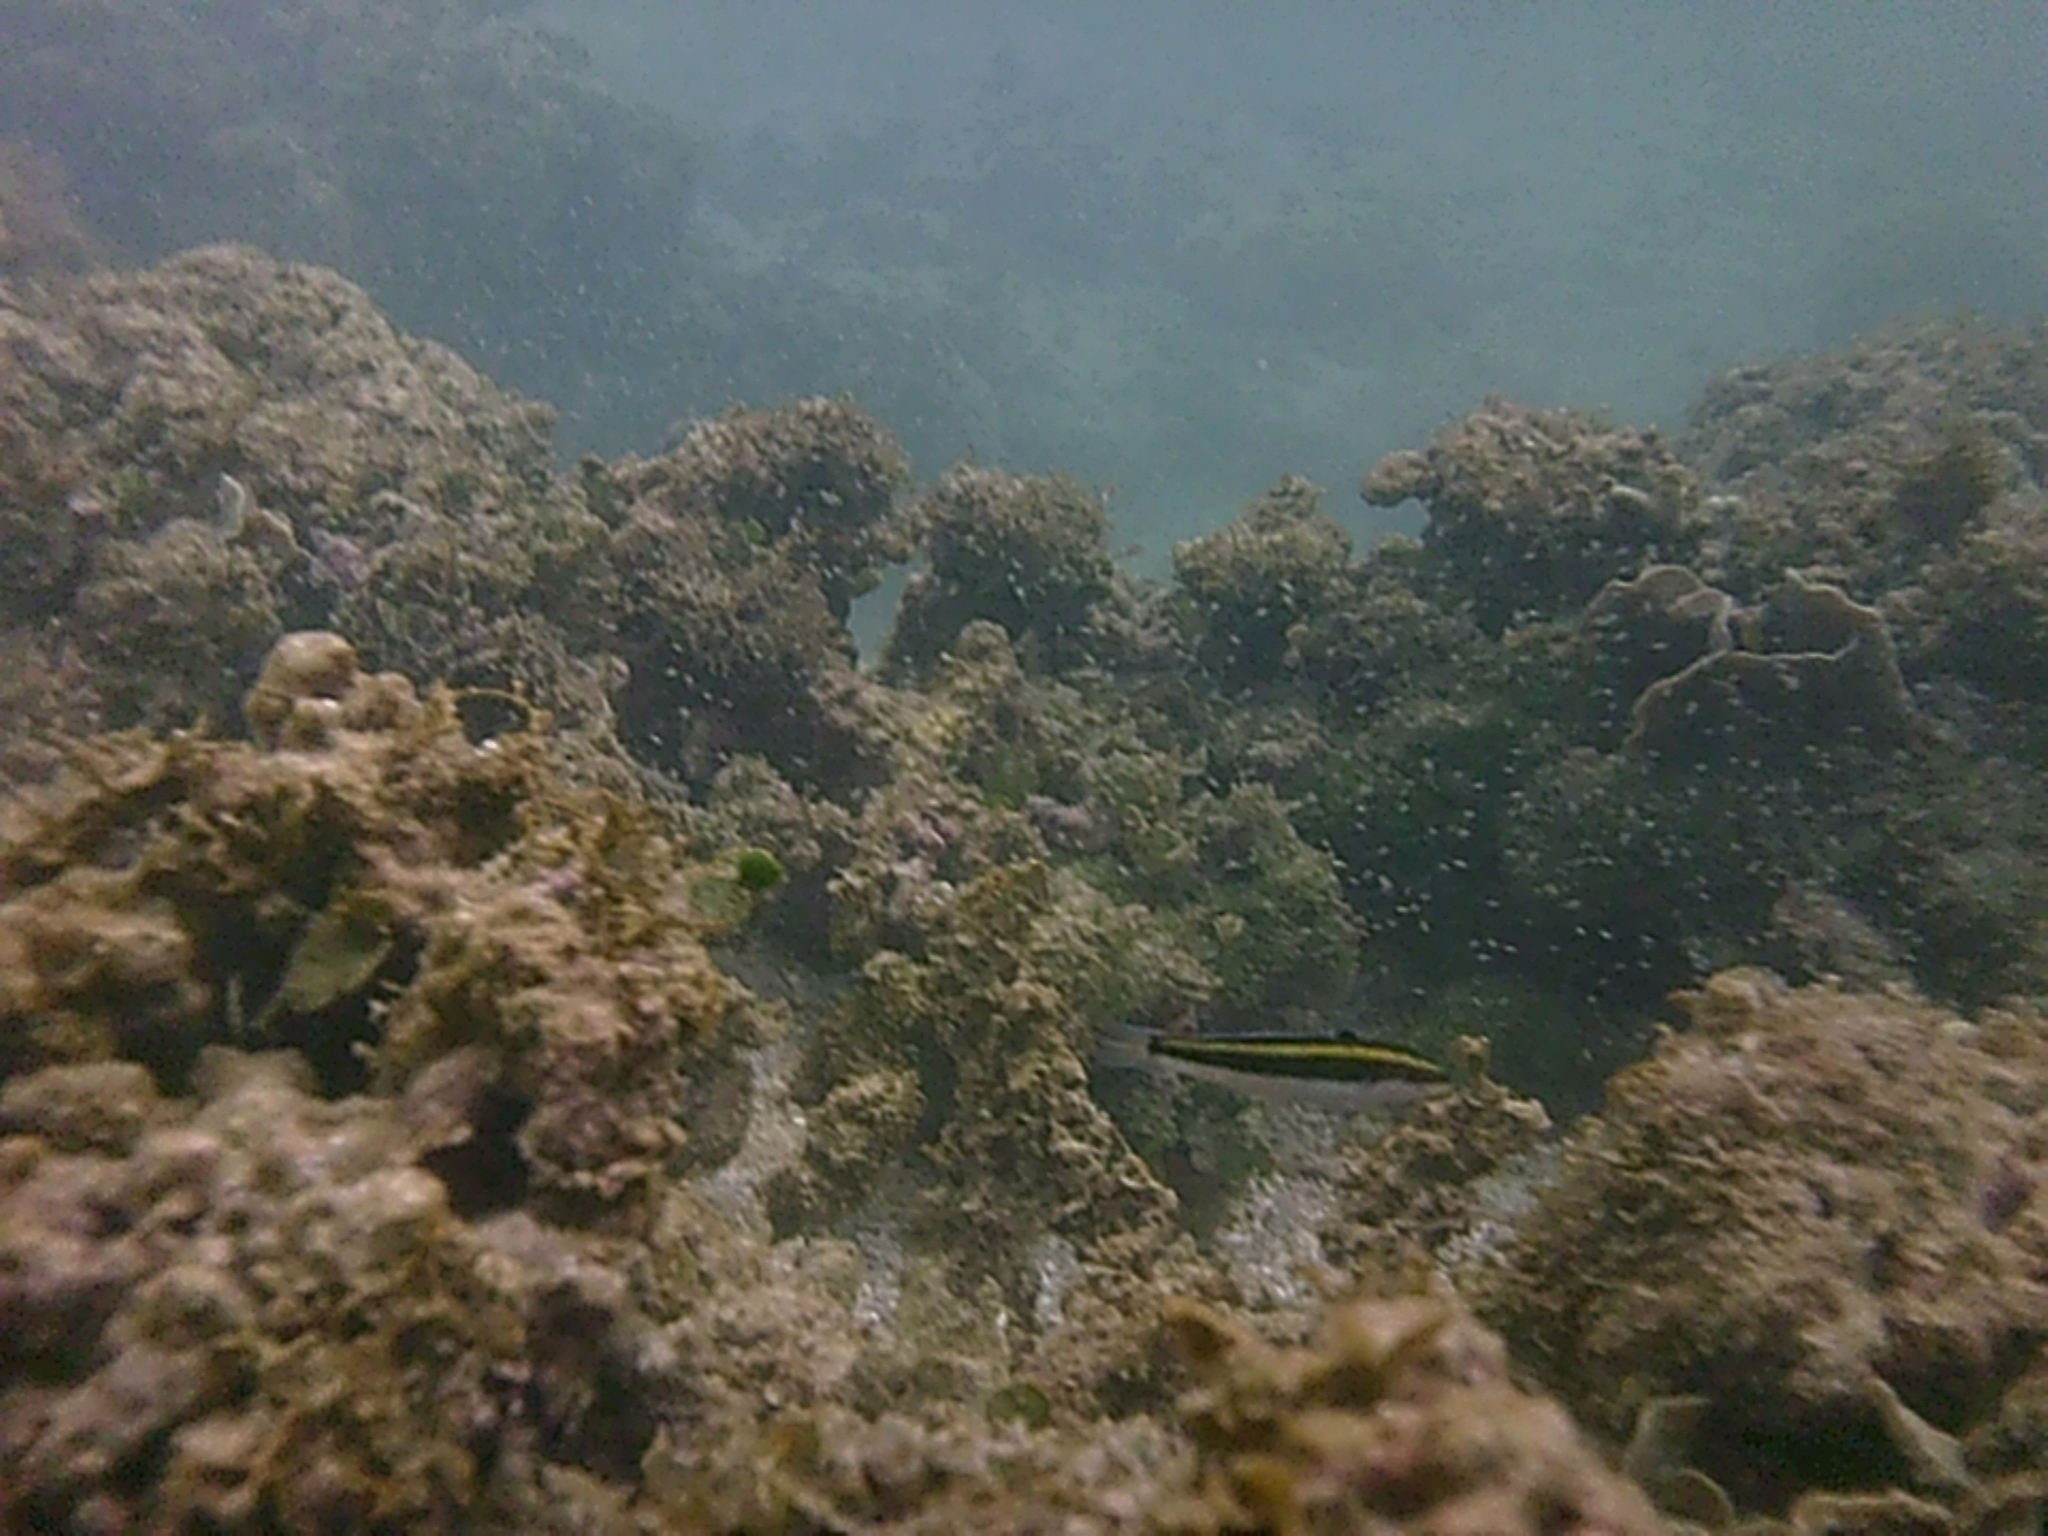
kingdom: Animalia
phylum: Chordata
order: Perciformes
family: Labridae
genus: Thalassoma
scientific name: Thalassoma bifasciatum
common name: Bluehead wrasse
